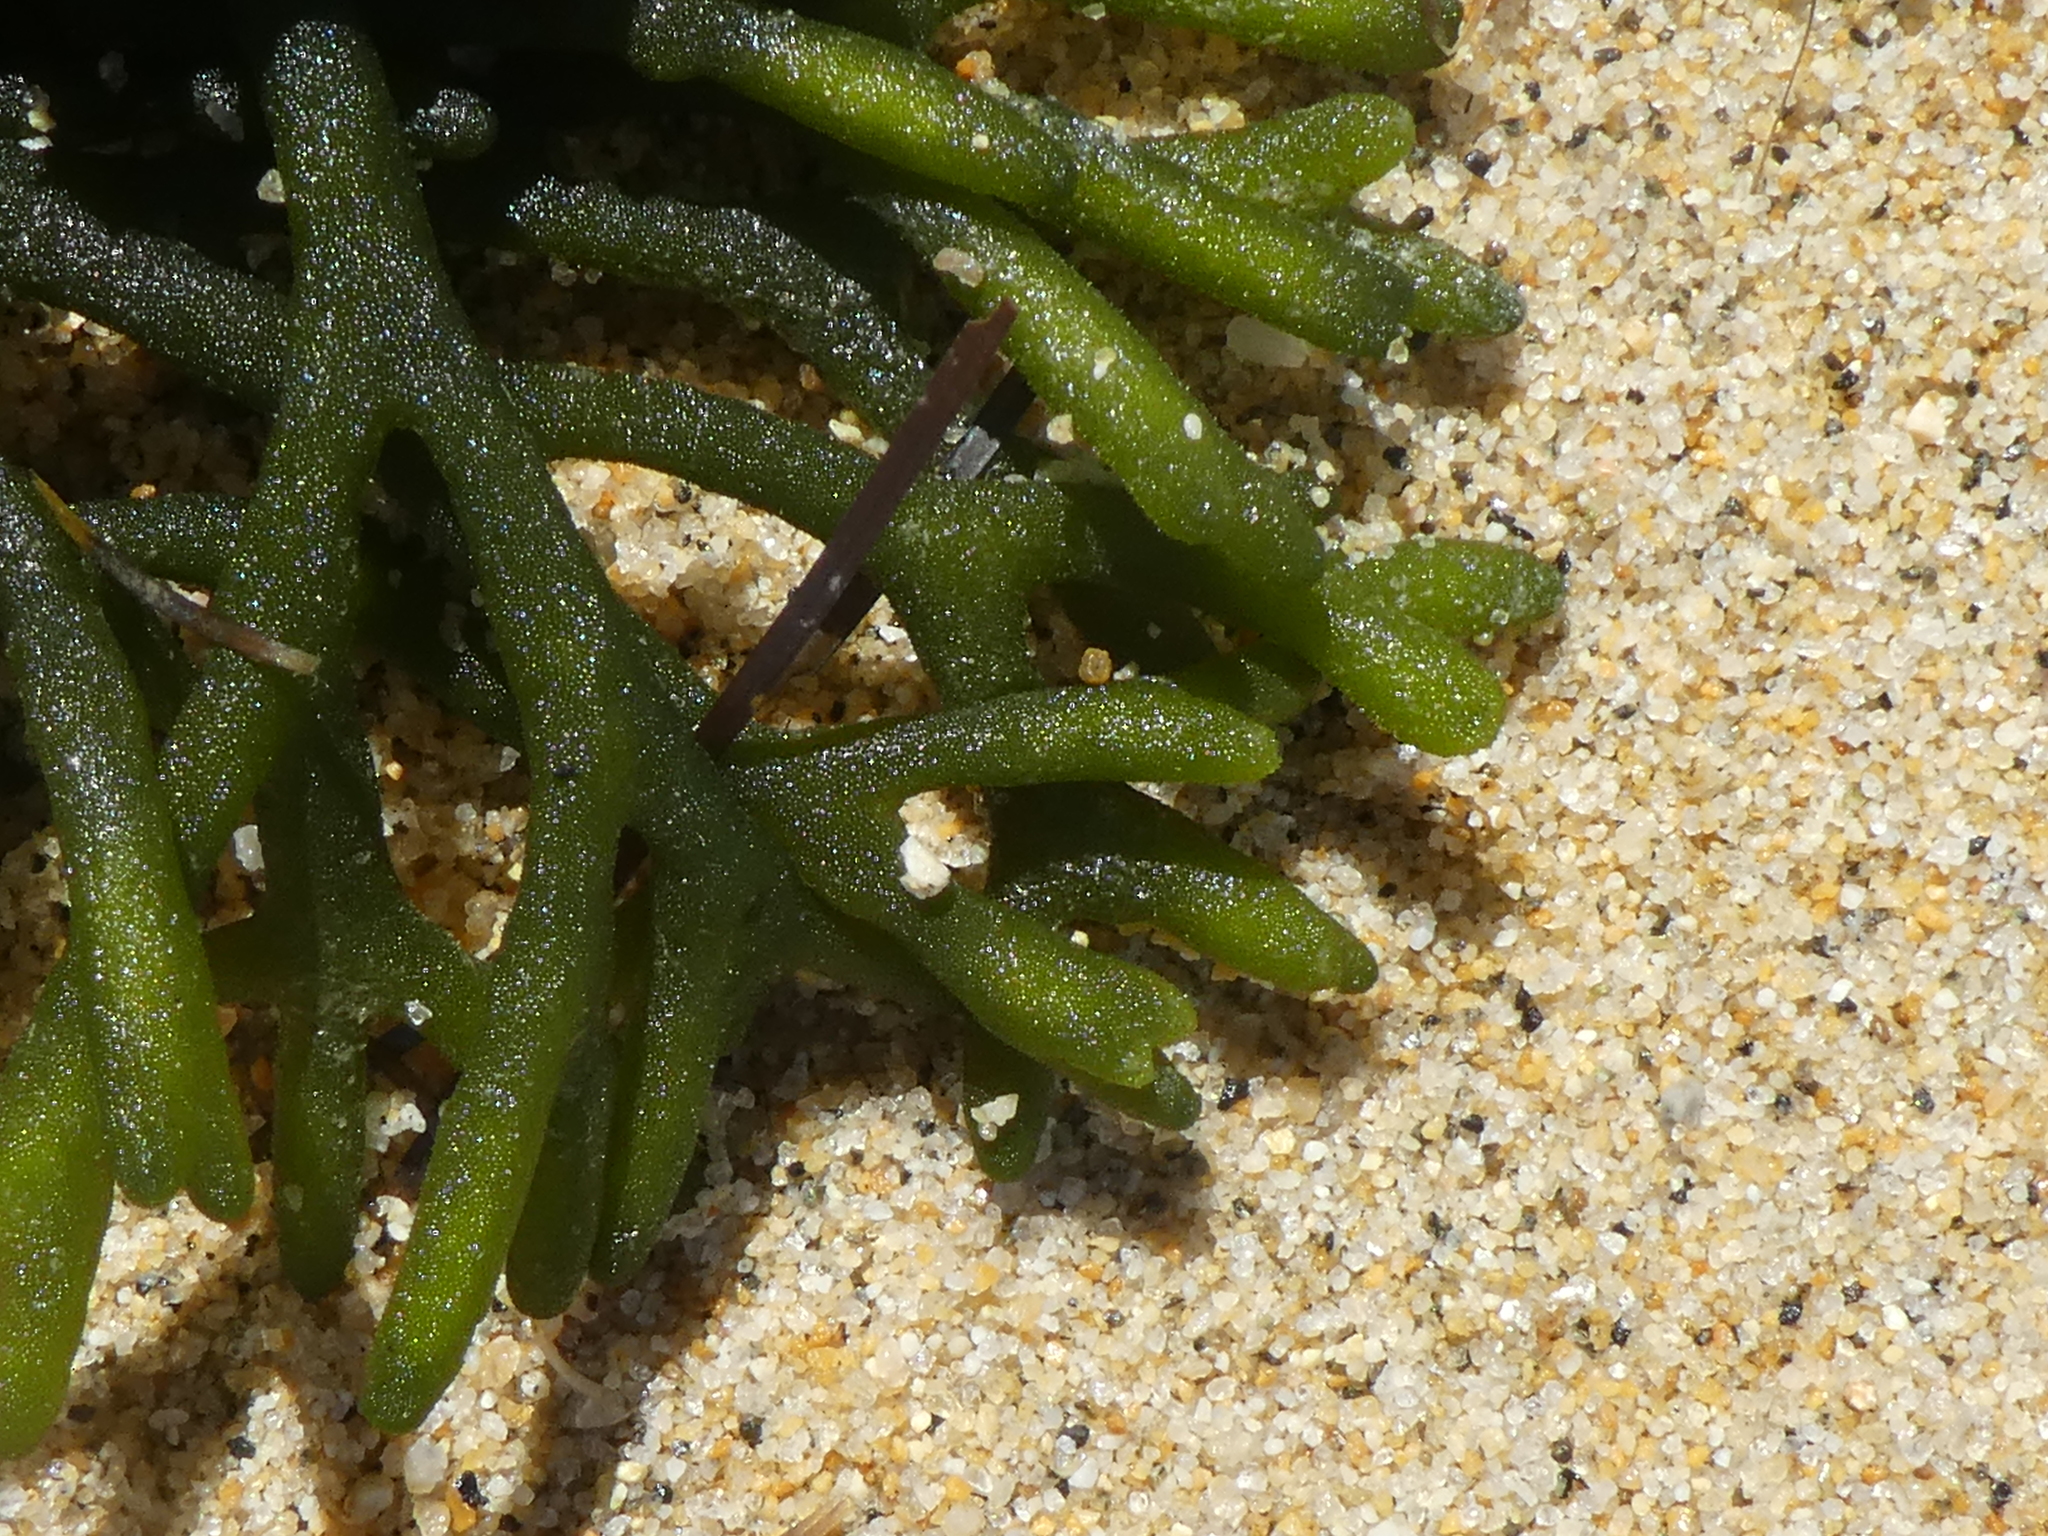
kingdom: Plantae
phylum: Chlorophyta
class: Ulvophyceae
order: Bryopsidales
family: Codiaceae
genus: Codium
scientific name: Codium fragile
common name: Dead man's fingers
